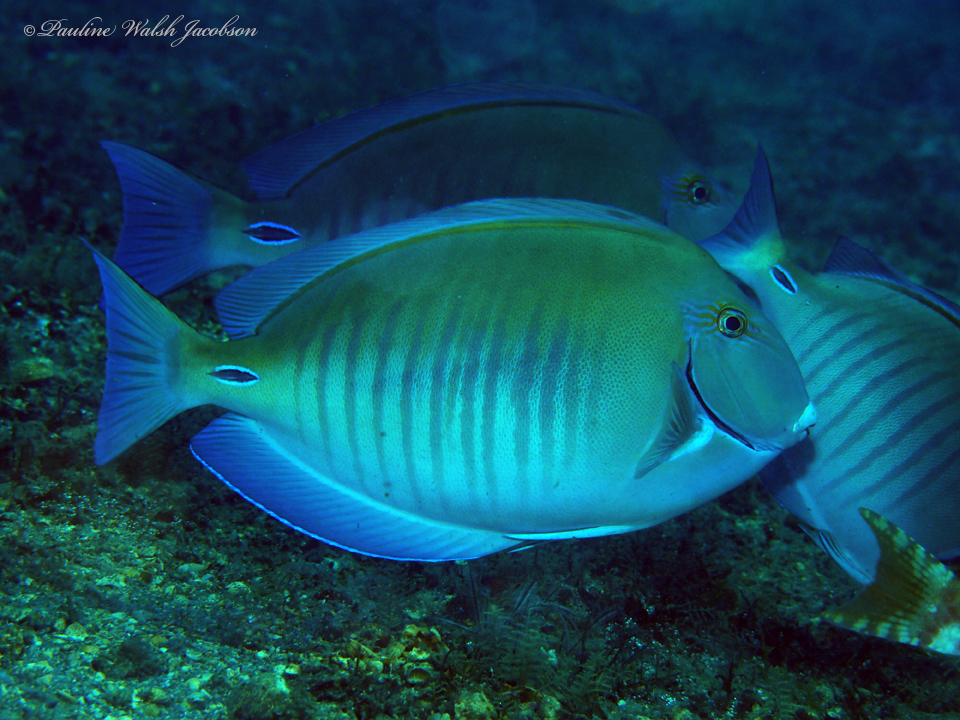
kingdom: Animalia
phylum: Chordata
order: Perciformes
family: Acanthuridae
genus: Acanthurus
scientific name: Acanthurus chirurgus
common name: Doctorfish
